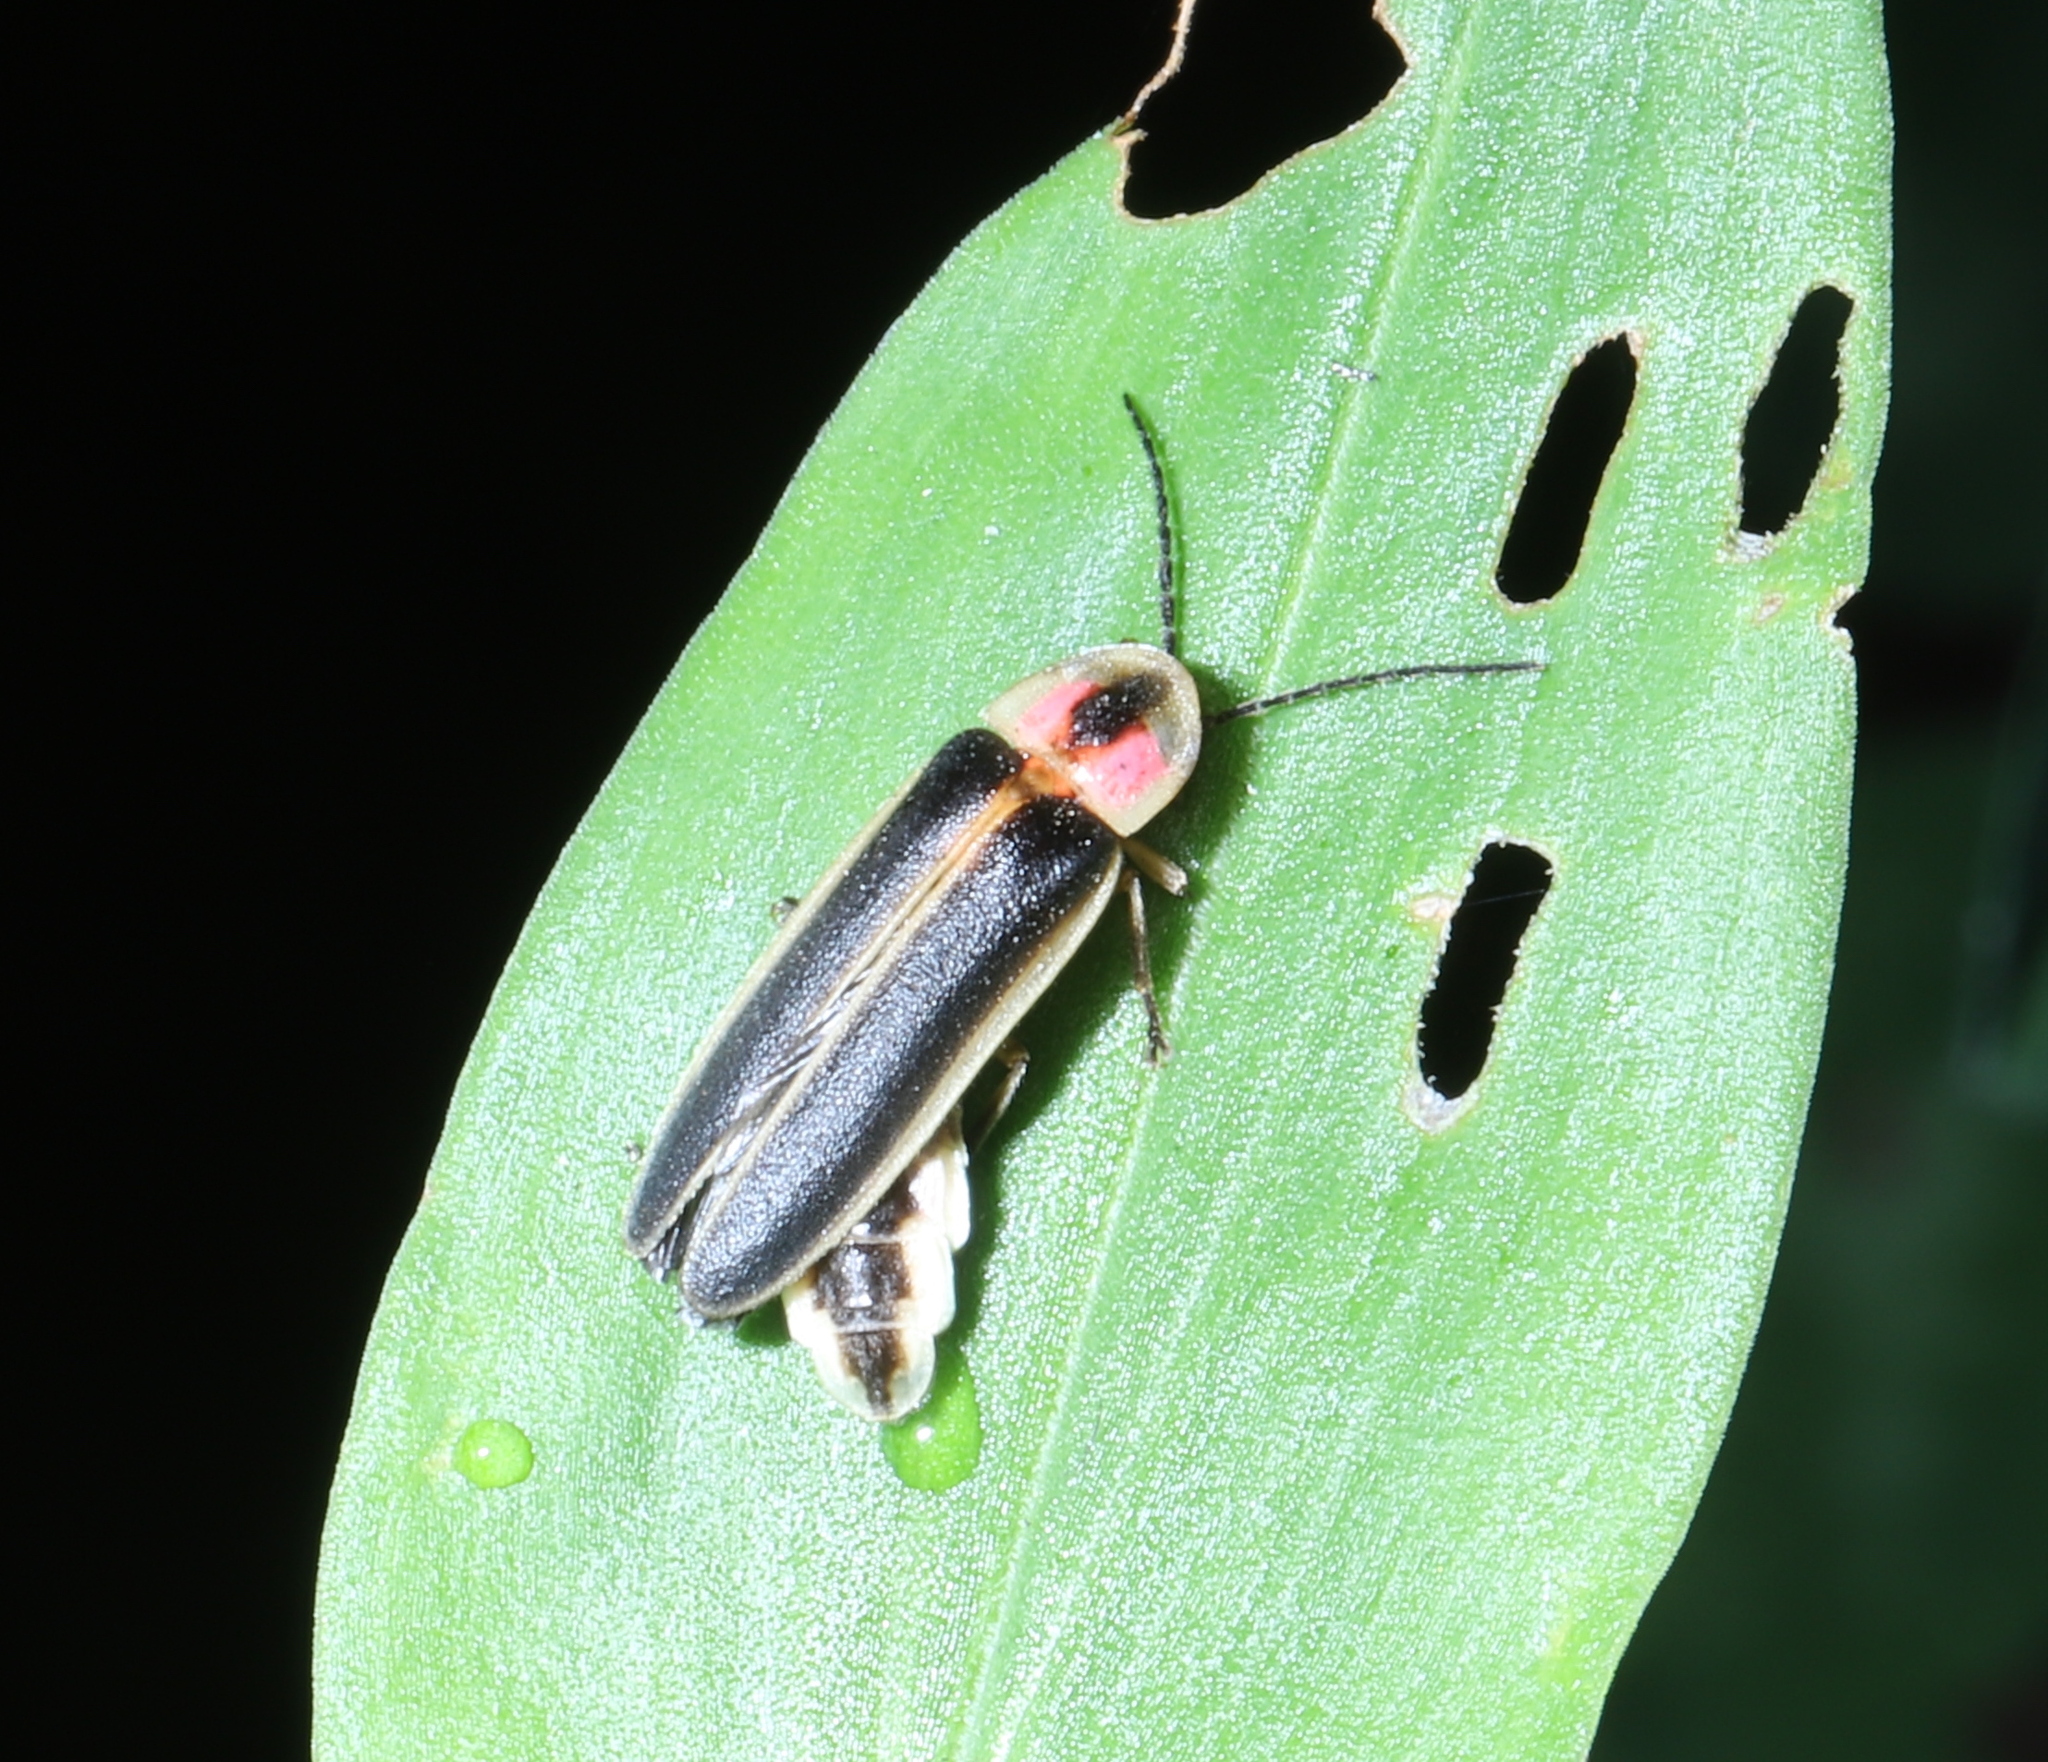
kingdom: Animalia
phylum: Arthropoda
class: Insecta
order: Coleoptera
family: Lampyridae
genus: Photinus
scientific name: Photinus pyralis
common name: Big dipper firefly
